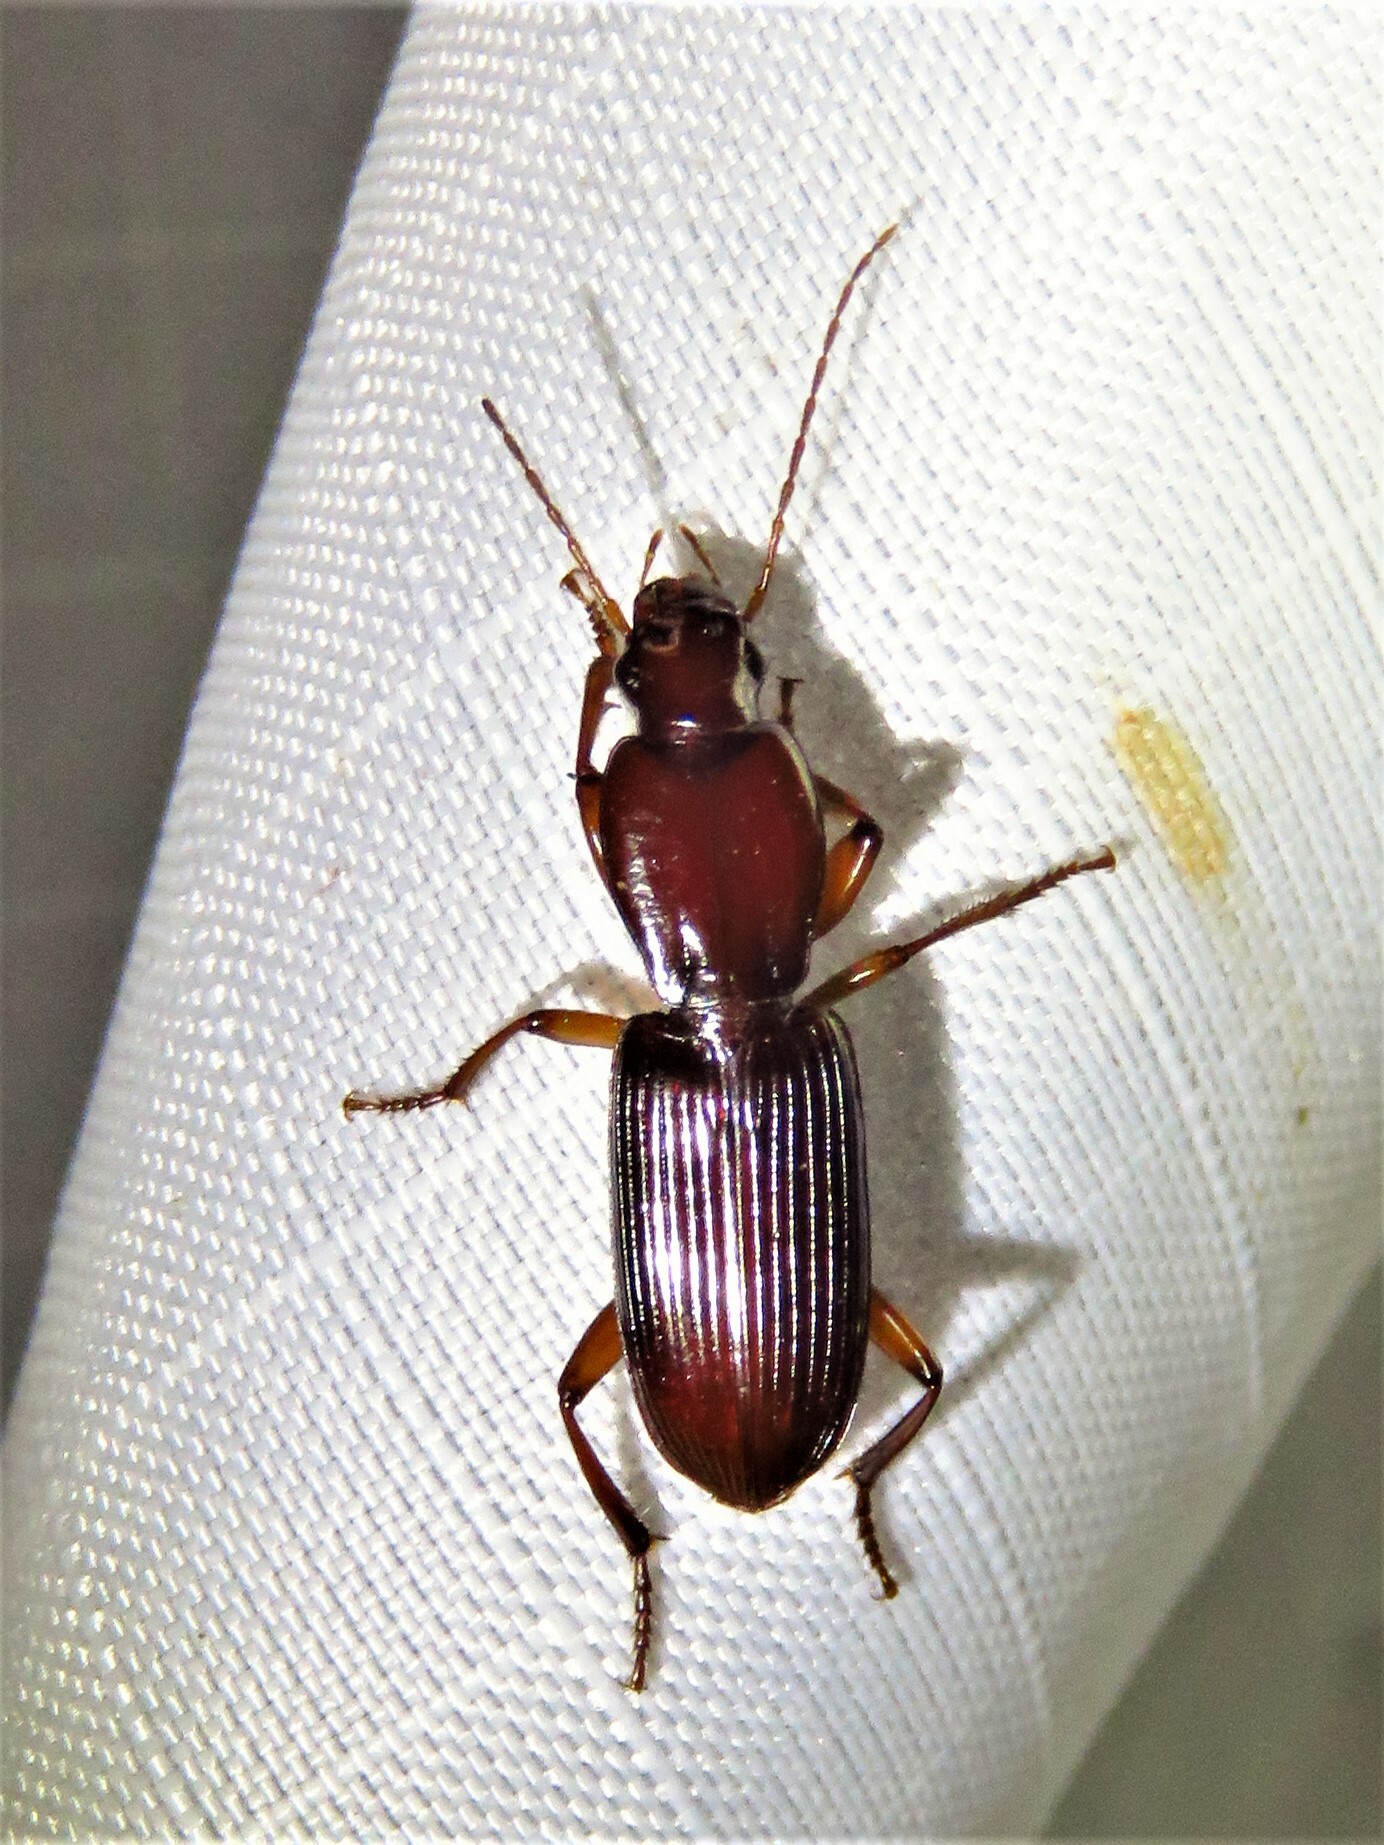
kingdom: Animalia
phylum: Arthropoda
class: Insecta
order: Coleoptera
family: Carabidae
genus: Stenomorphus
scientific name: Stenomorphus californicus
